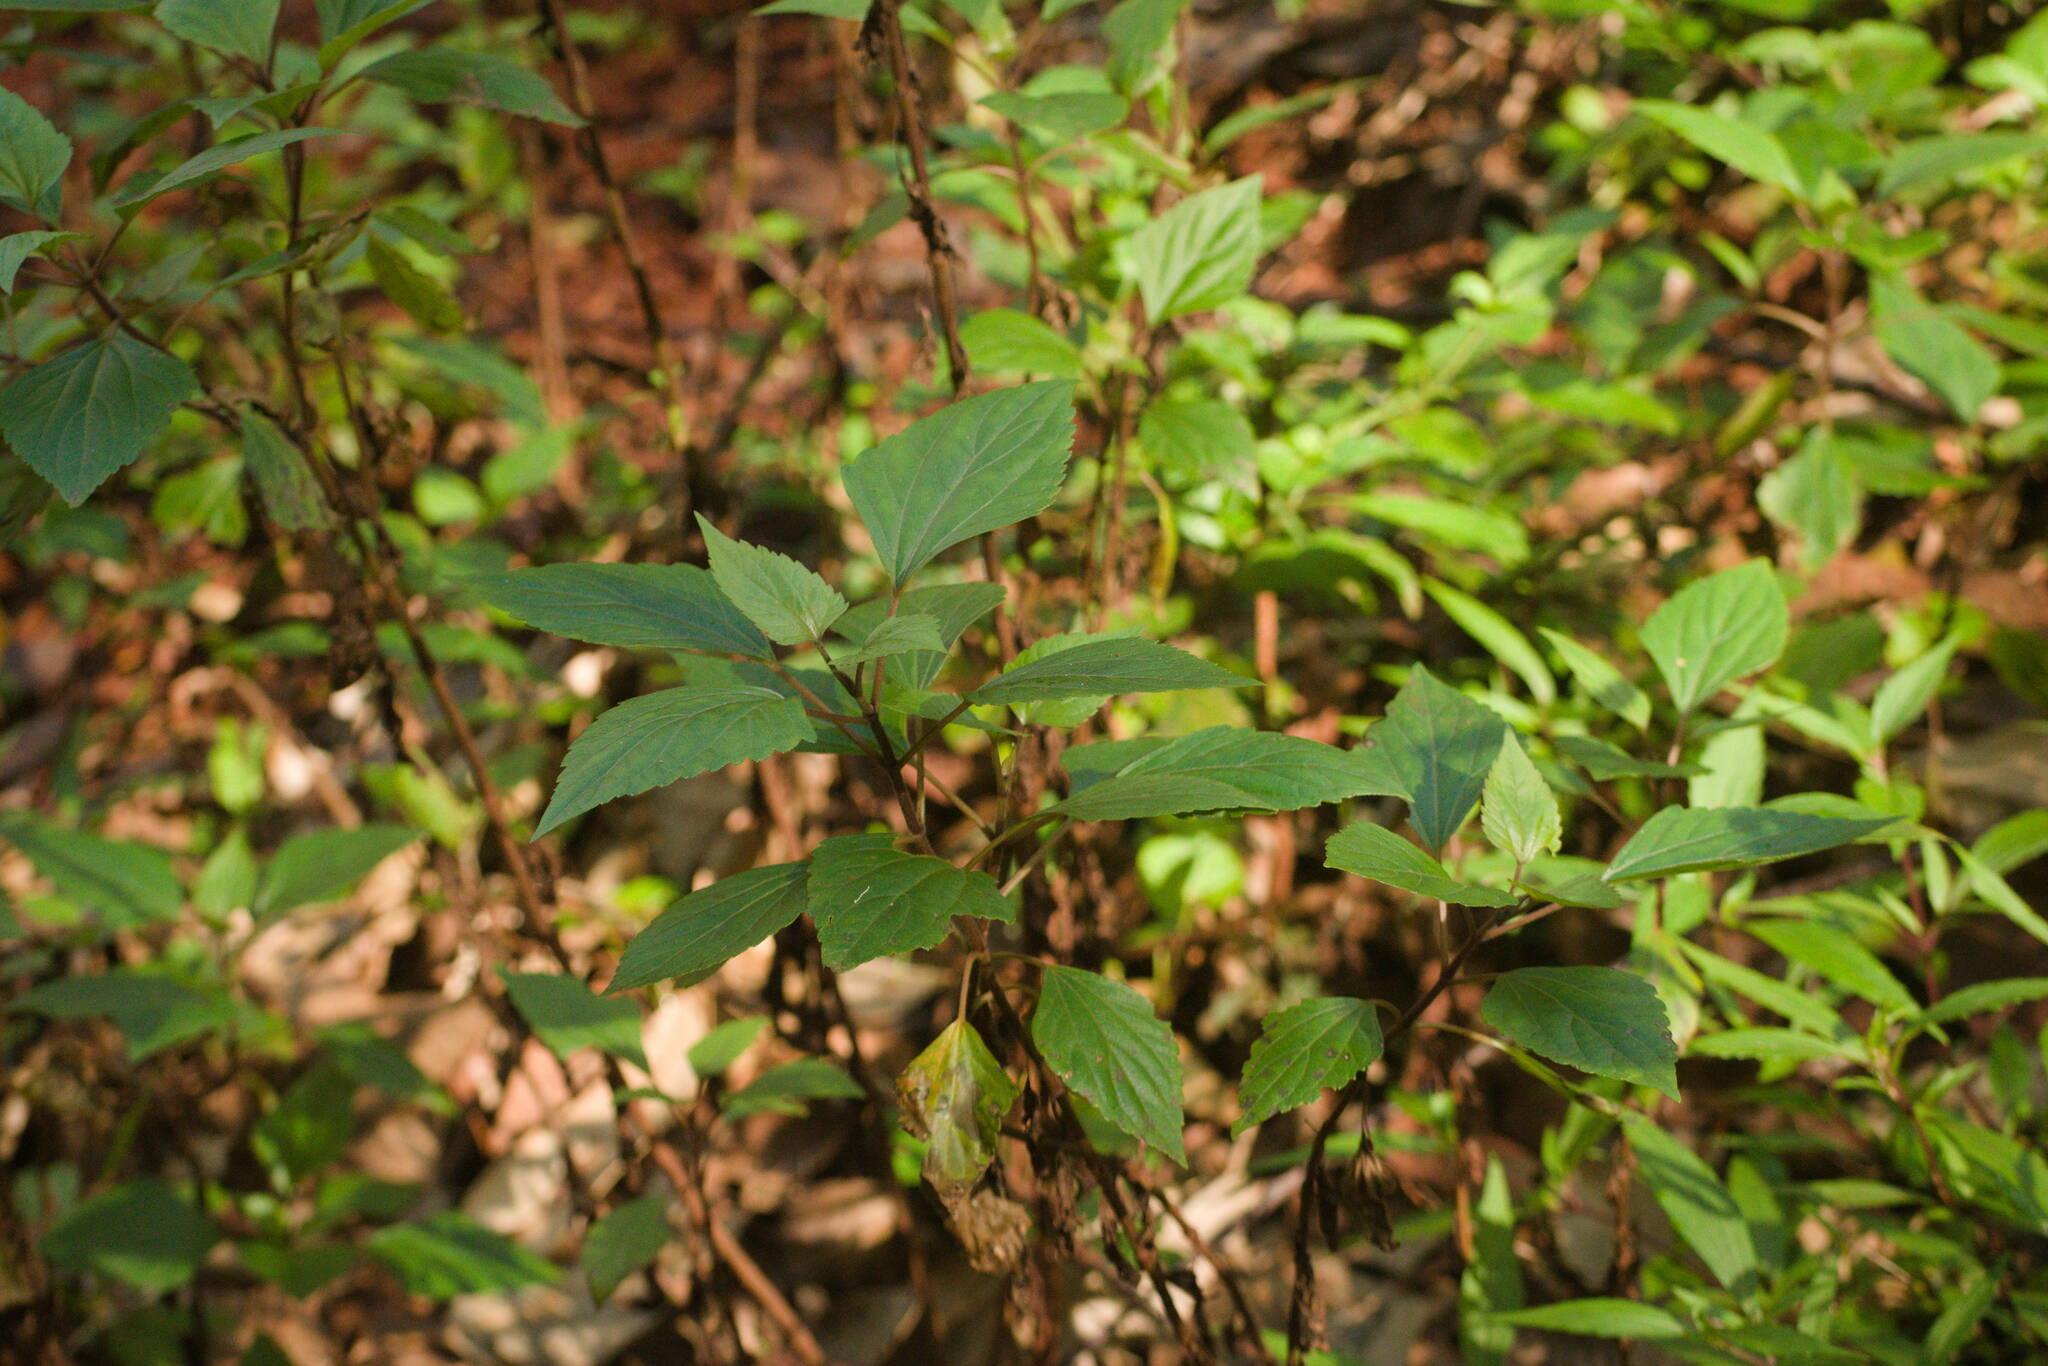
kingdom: Plantae
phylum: Tracheophyta
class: Magnoliopsida
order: Asterales
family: Asteraceae
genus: Ageratina
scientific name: Ageratina adenophora
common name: Sticky snakeroot
